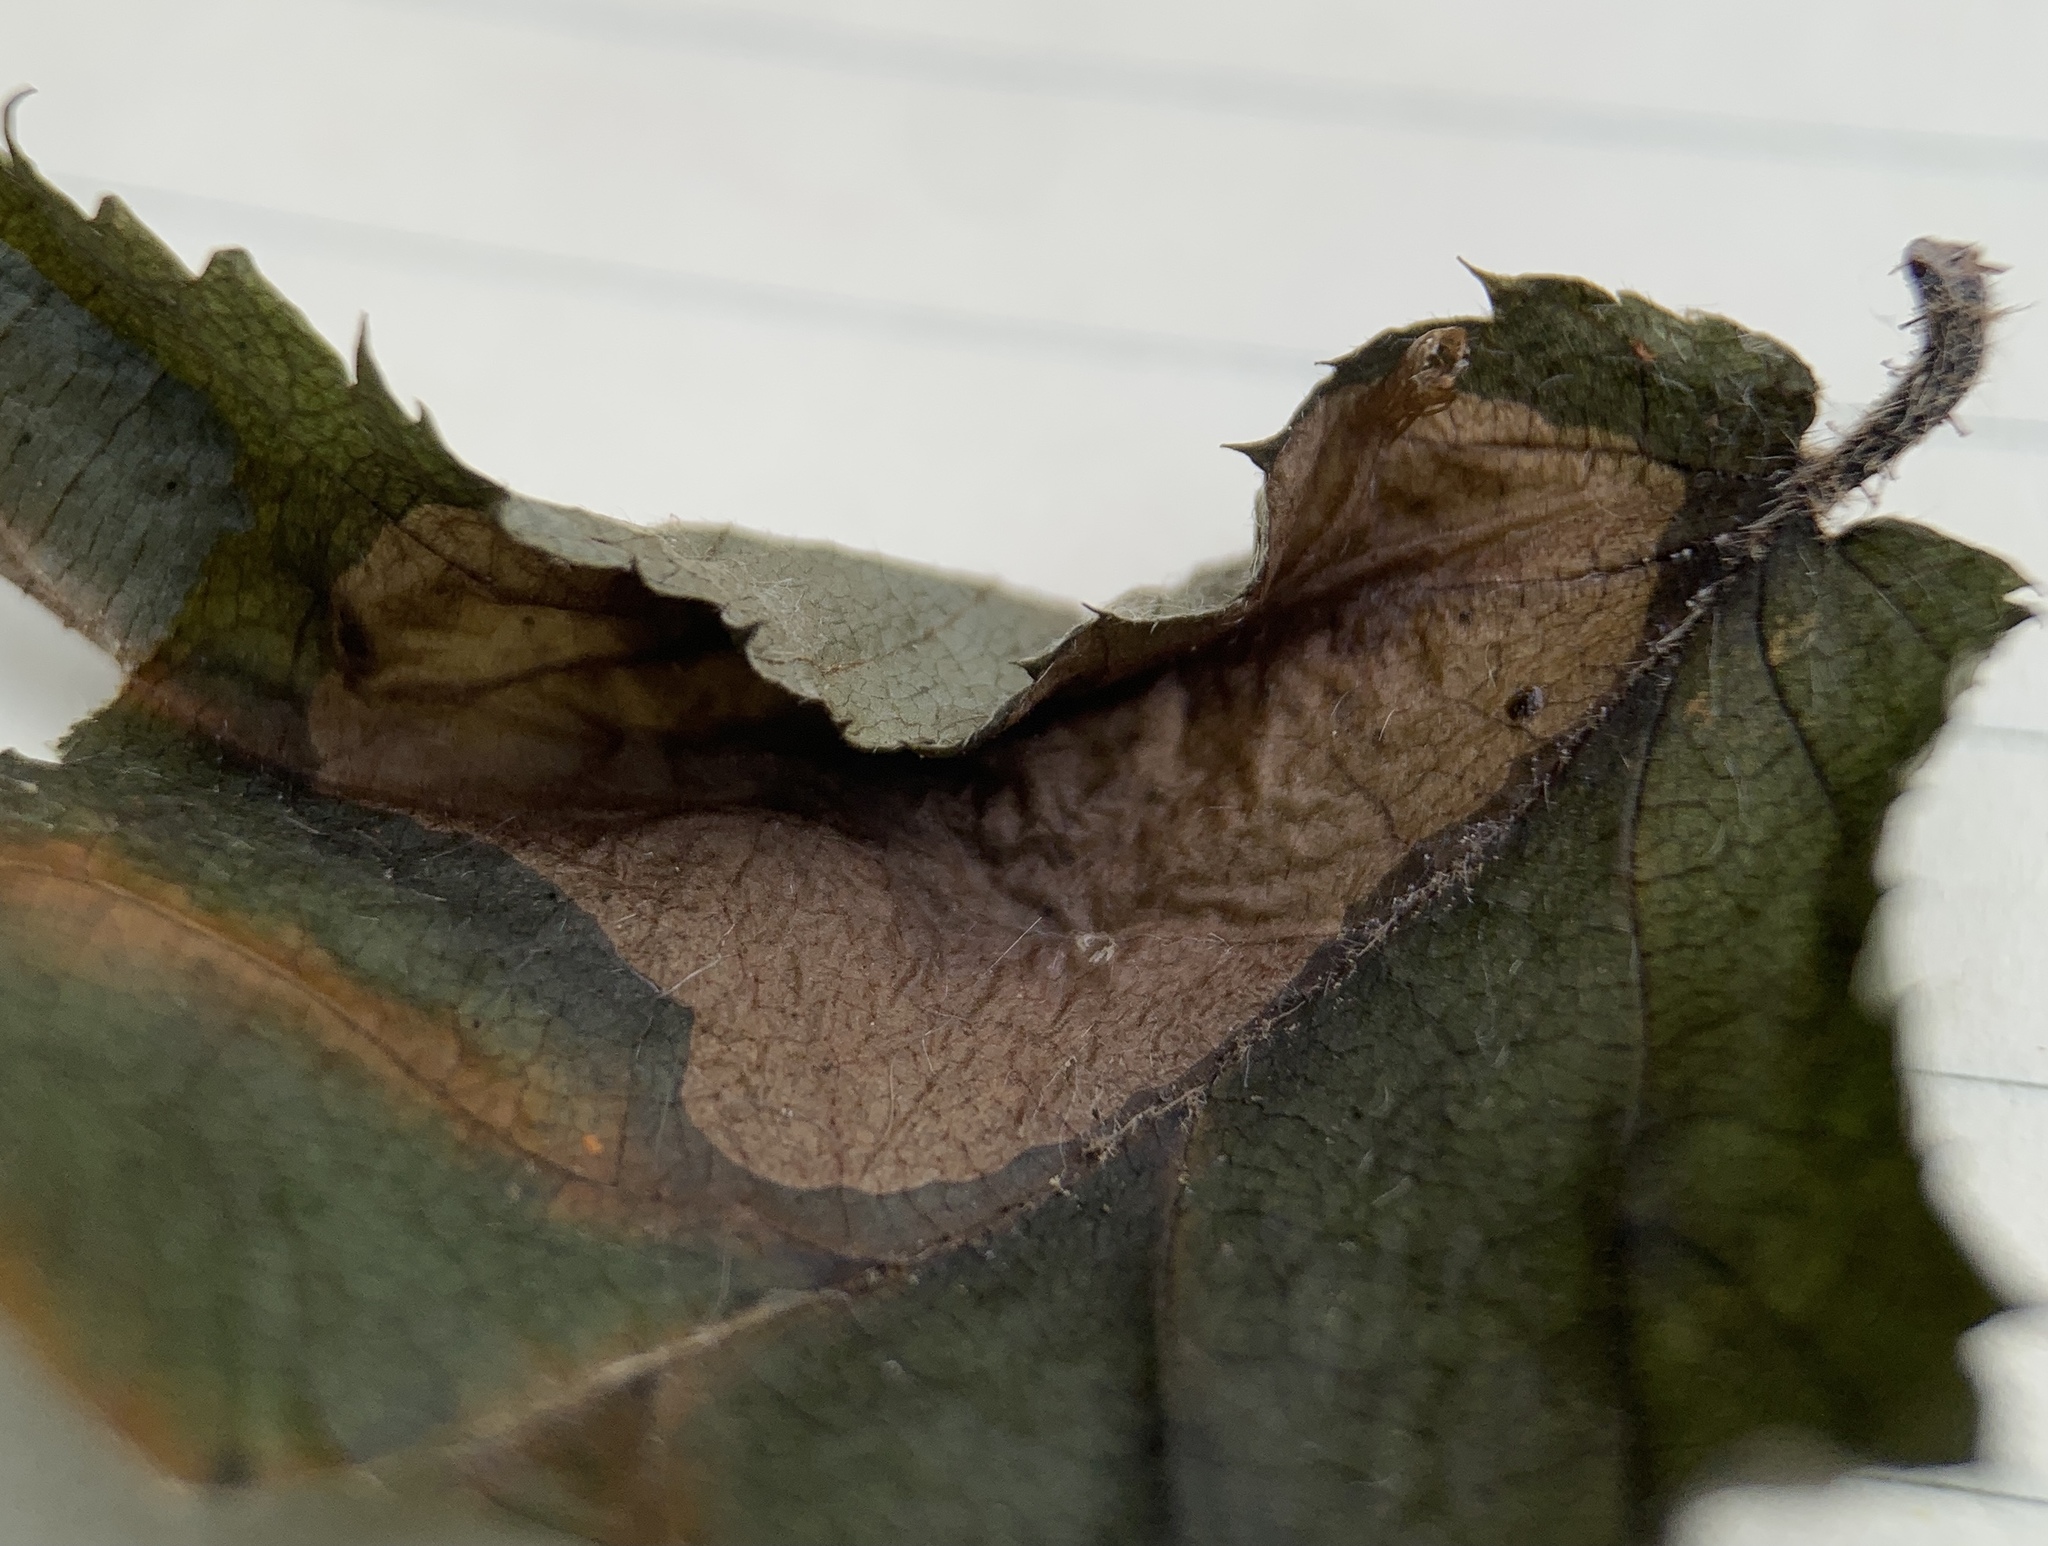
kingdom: Animalia
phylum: Arthropoda
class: Insecta
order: Lepidoptera
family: Gracillariidae
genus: Cameraria
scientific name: Cameraria ostryarella
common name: Hophornbeam blotchminer
